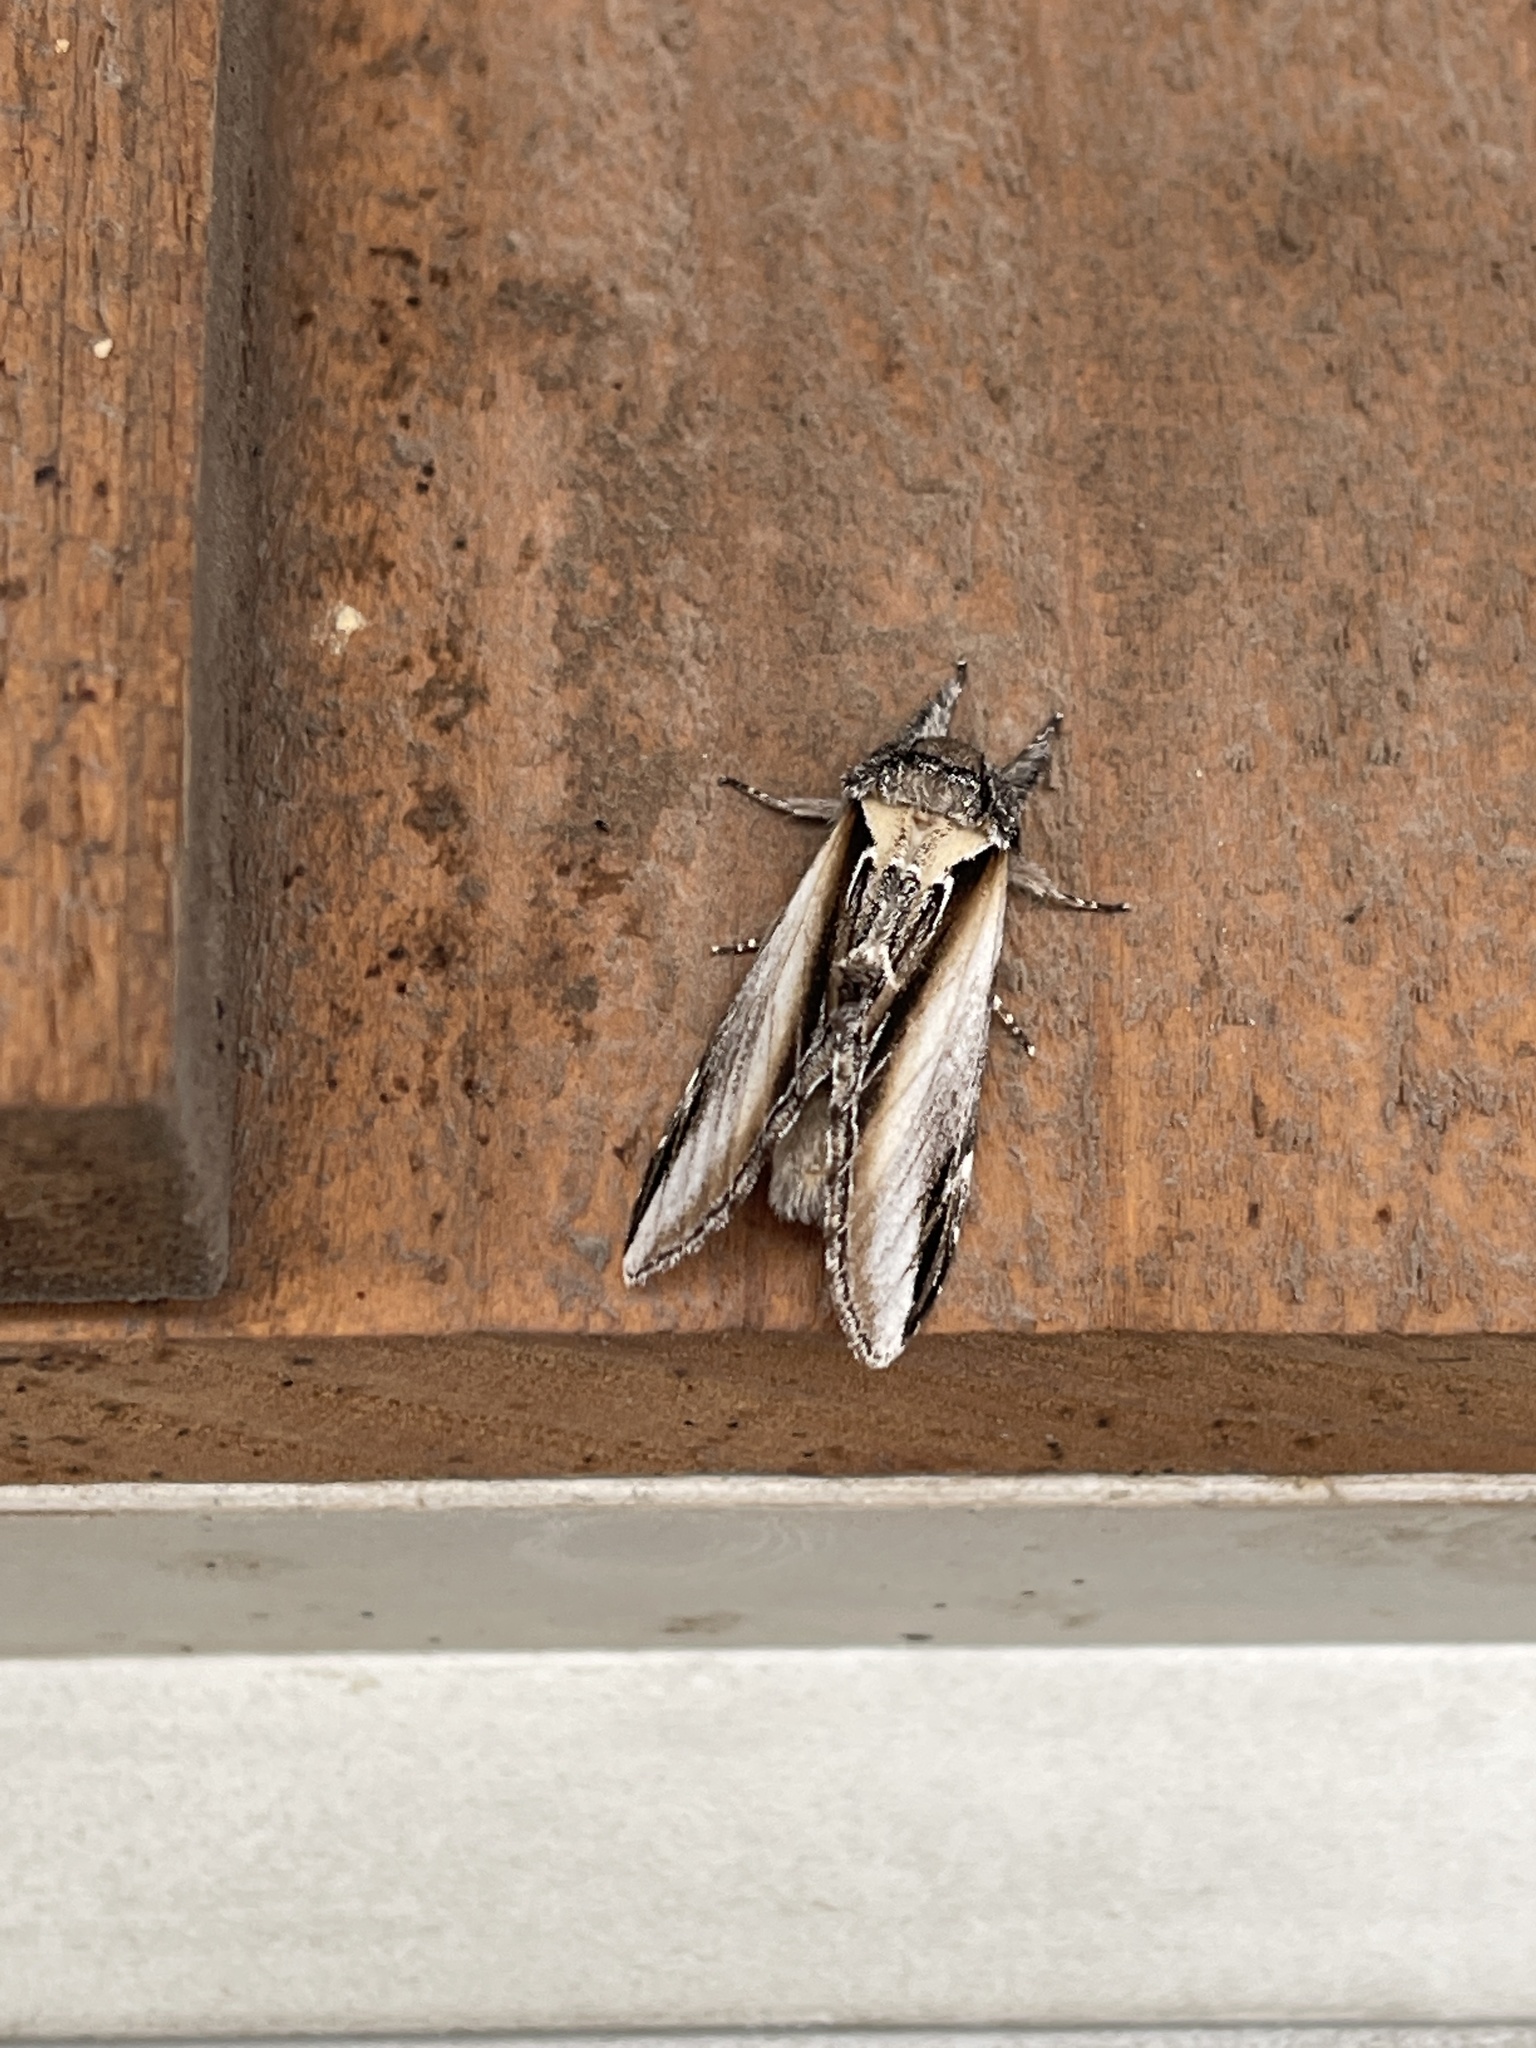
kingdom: Animalia
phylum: Arthropoda
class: Insecta
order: Lepidoptera
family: Notodontidae
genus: Pheosia
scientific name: Pheosia rimosa
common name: Black-rimmed prominent
